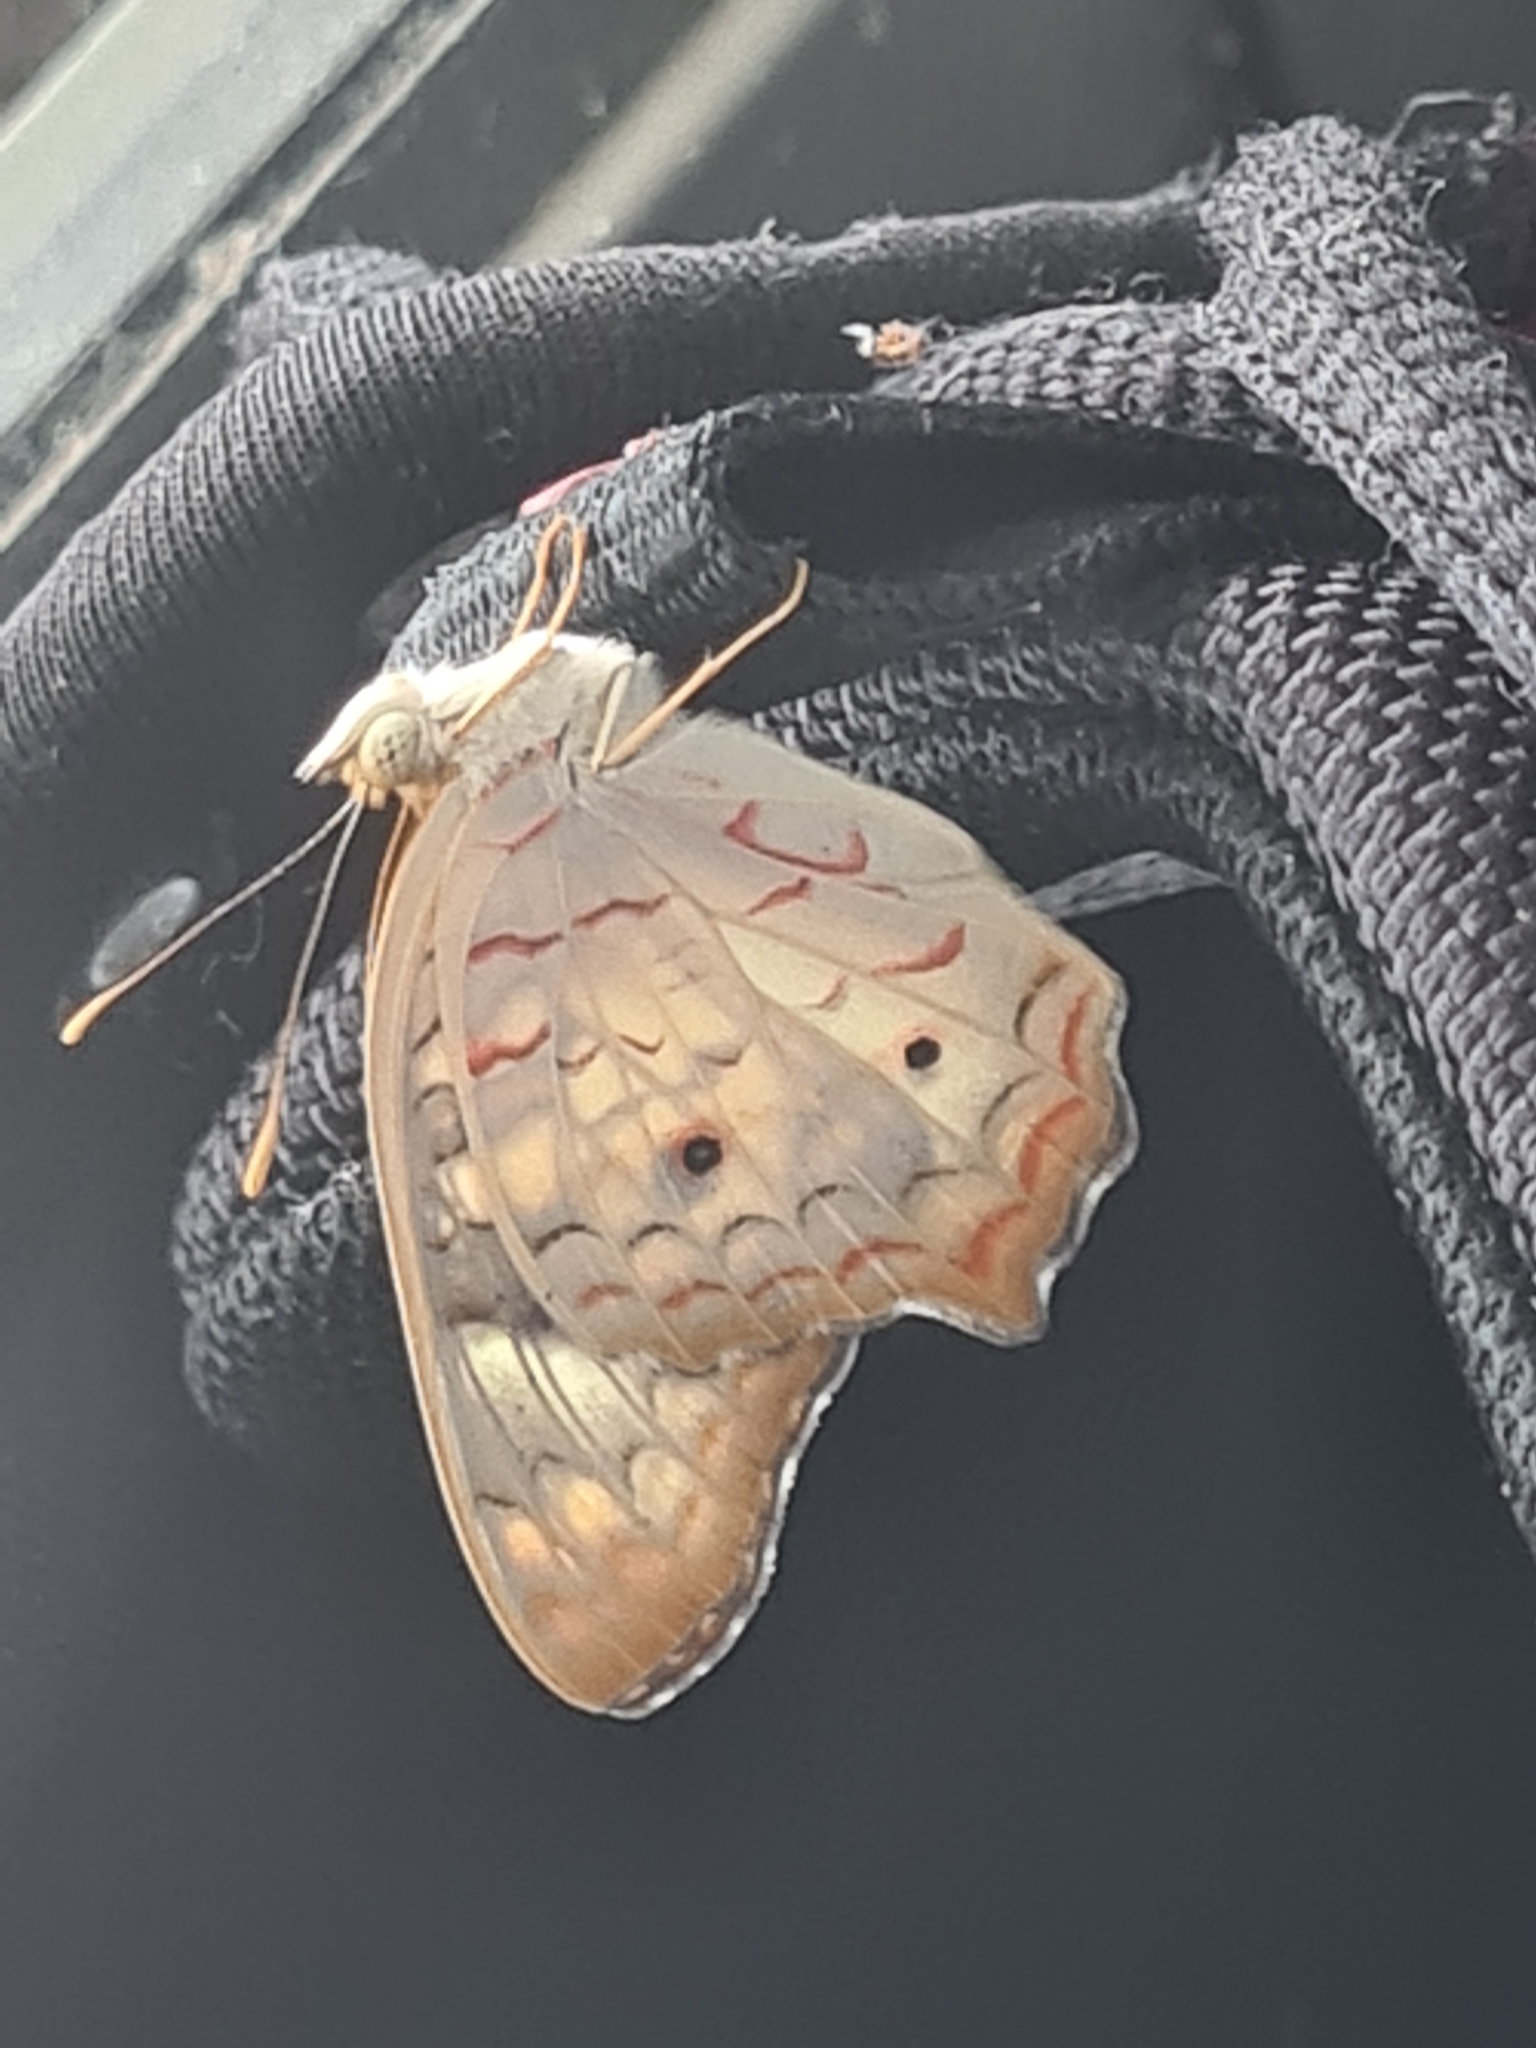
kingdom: Animalia
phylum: Arthropoda
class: Insecta
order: Lepidoptera
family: Nymphalidae
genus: Anartia
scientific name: Anartia jatrophae
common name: White peacock
